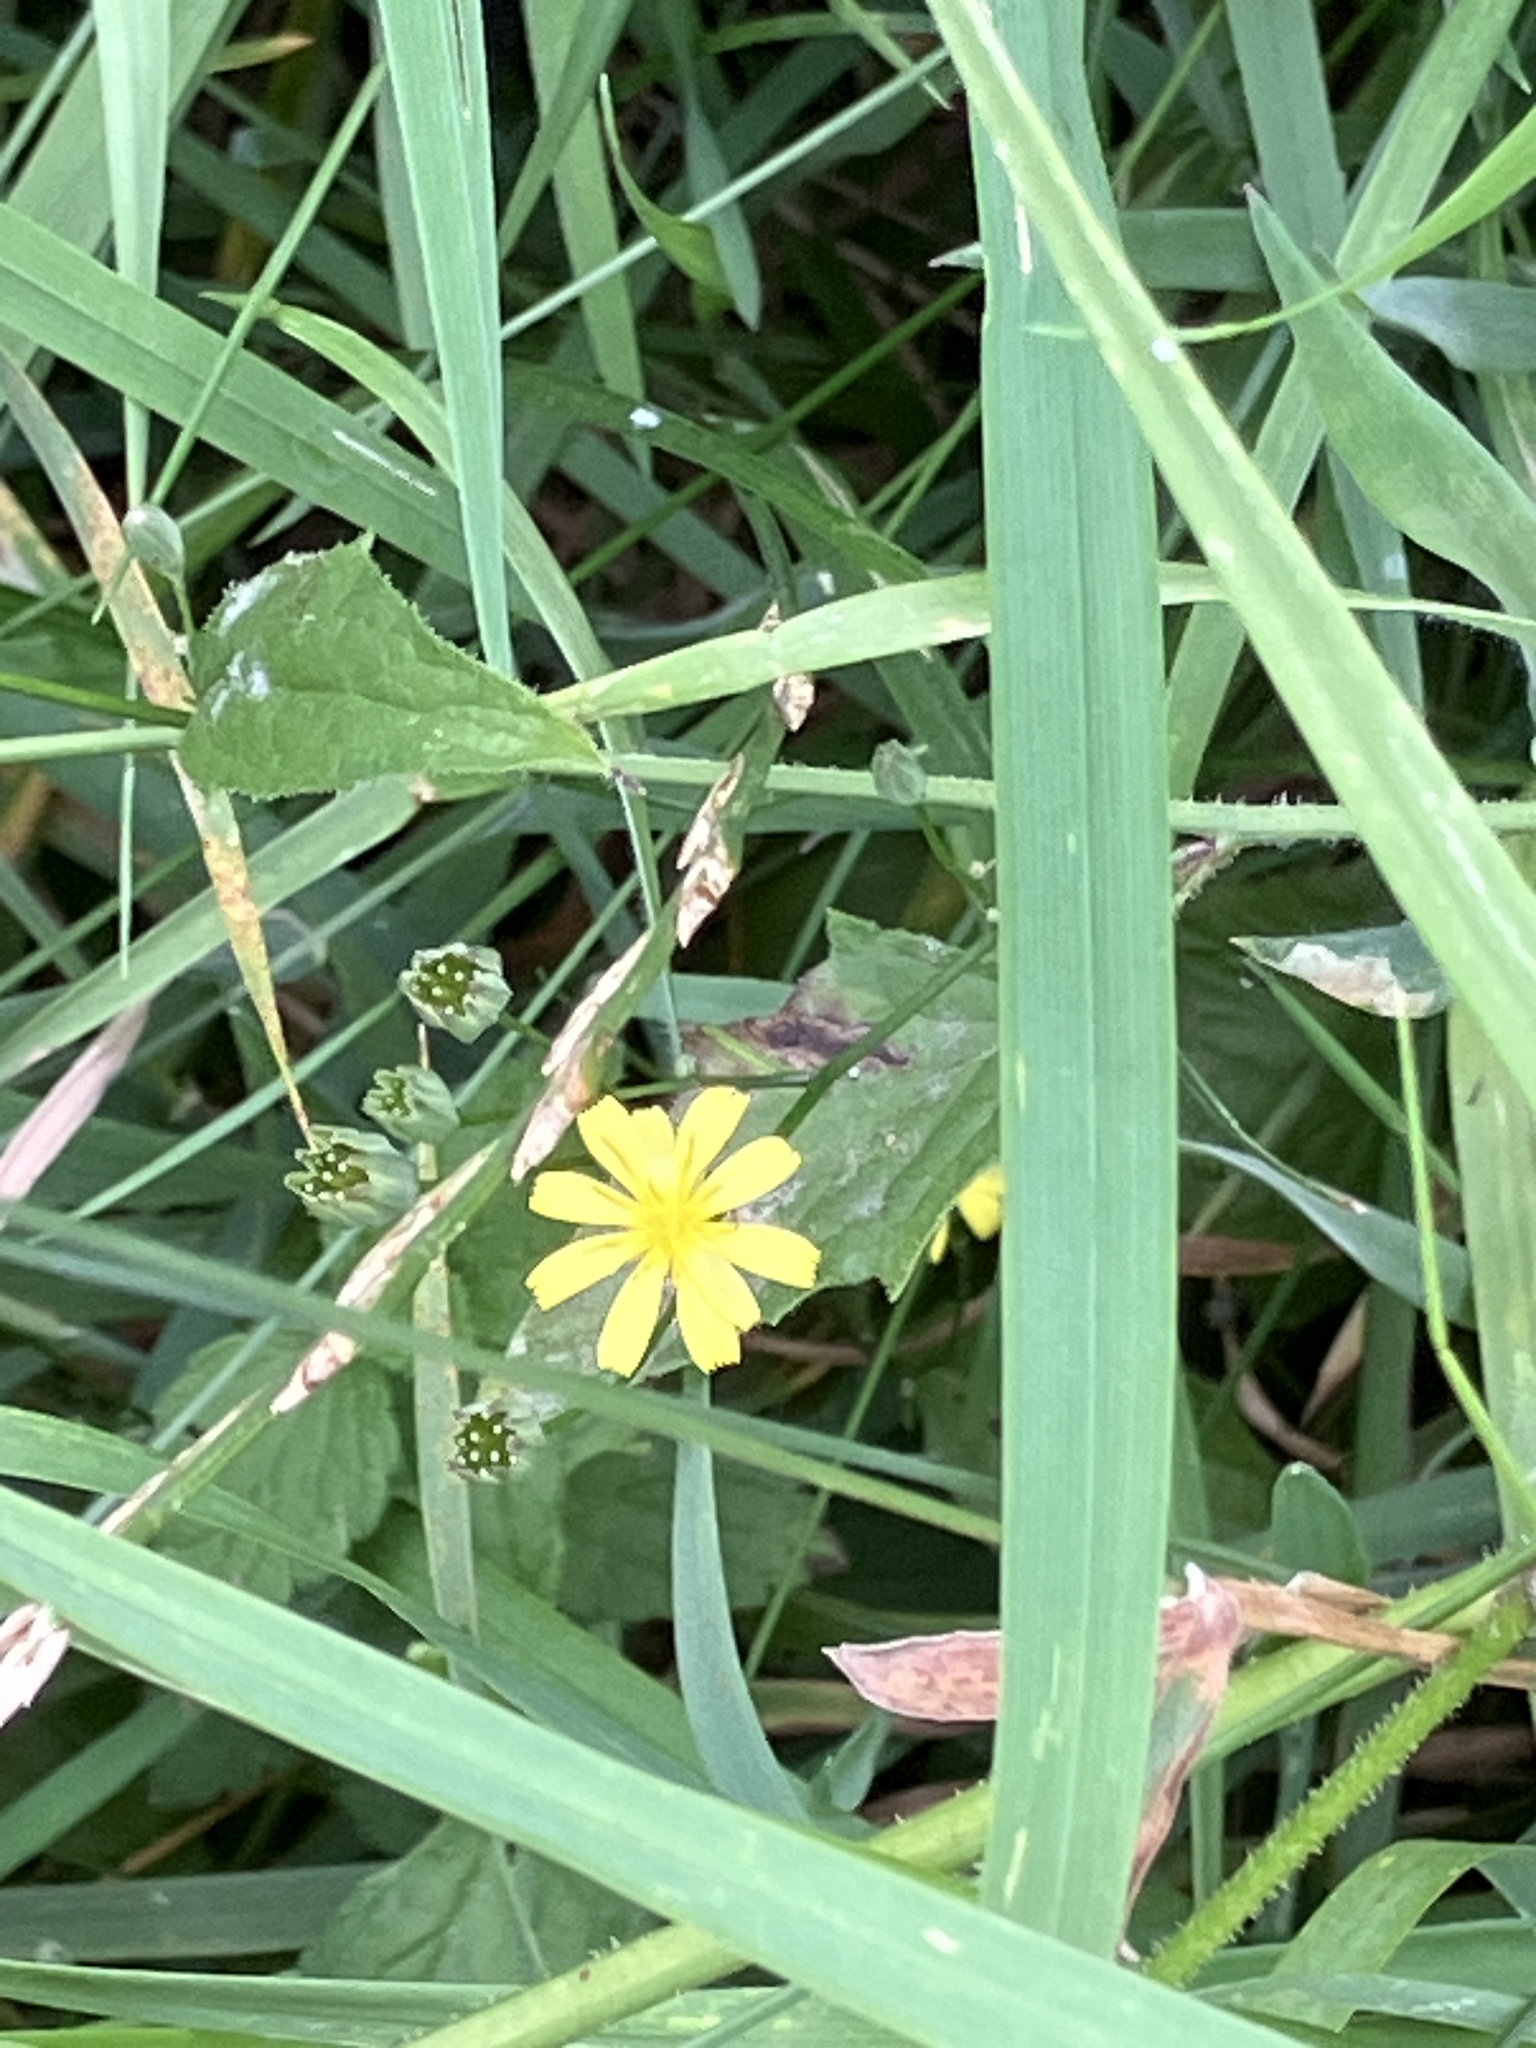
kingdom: Plantae
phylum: Tracheophyta
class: Magnoliopsida
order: Asterales
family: Asteraceae
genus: Lapsana
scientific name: Lapsana communis
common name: Nipplewort
